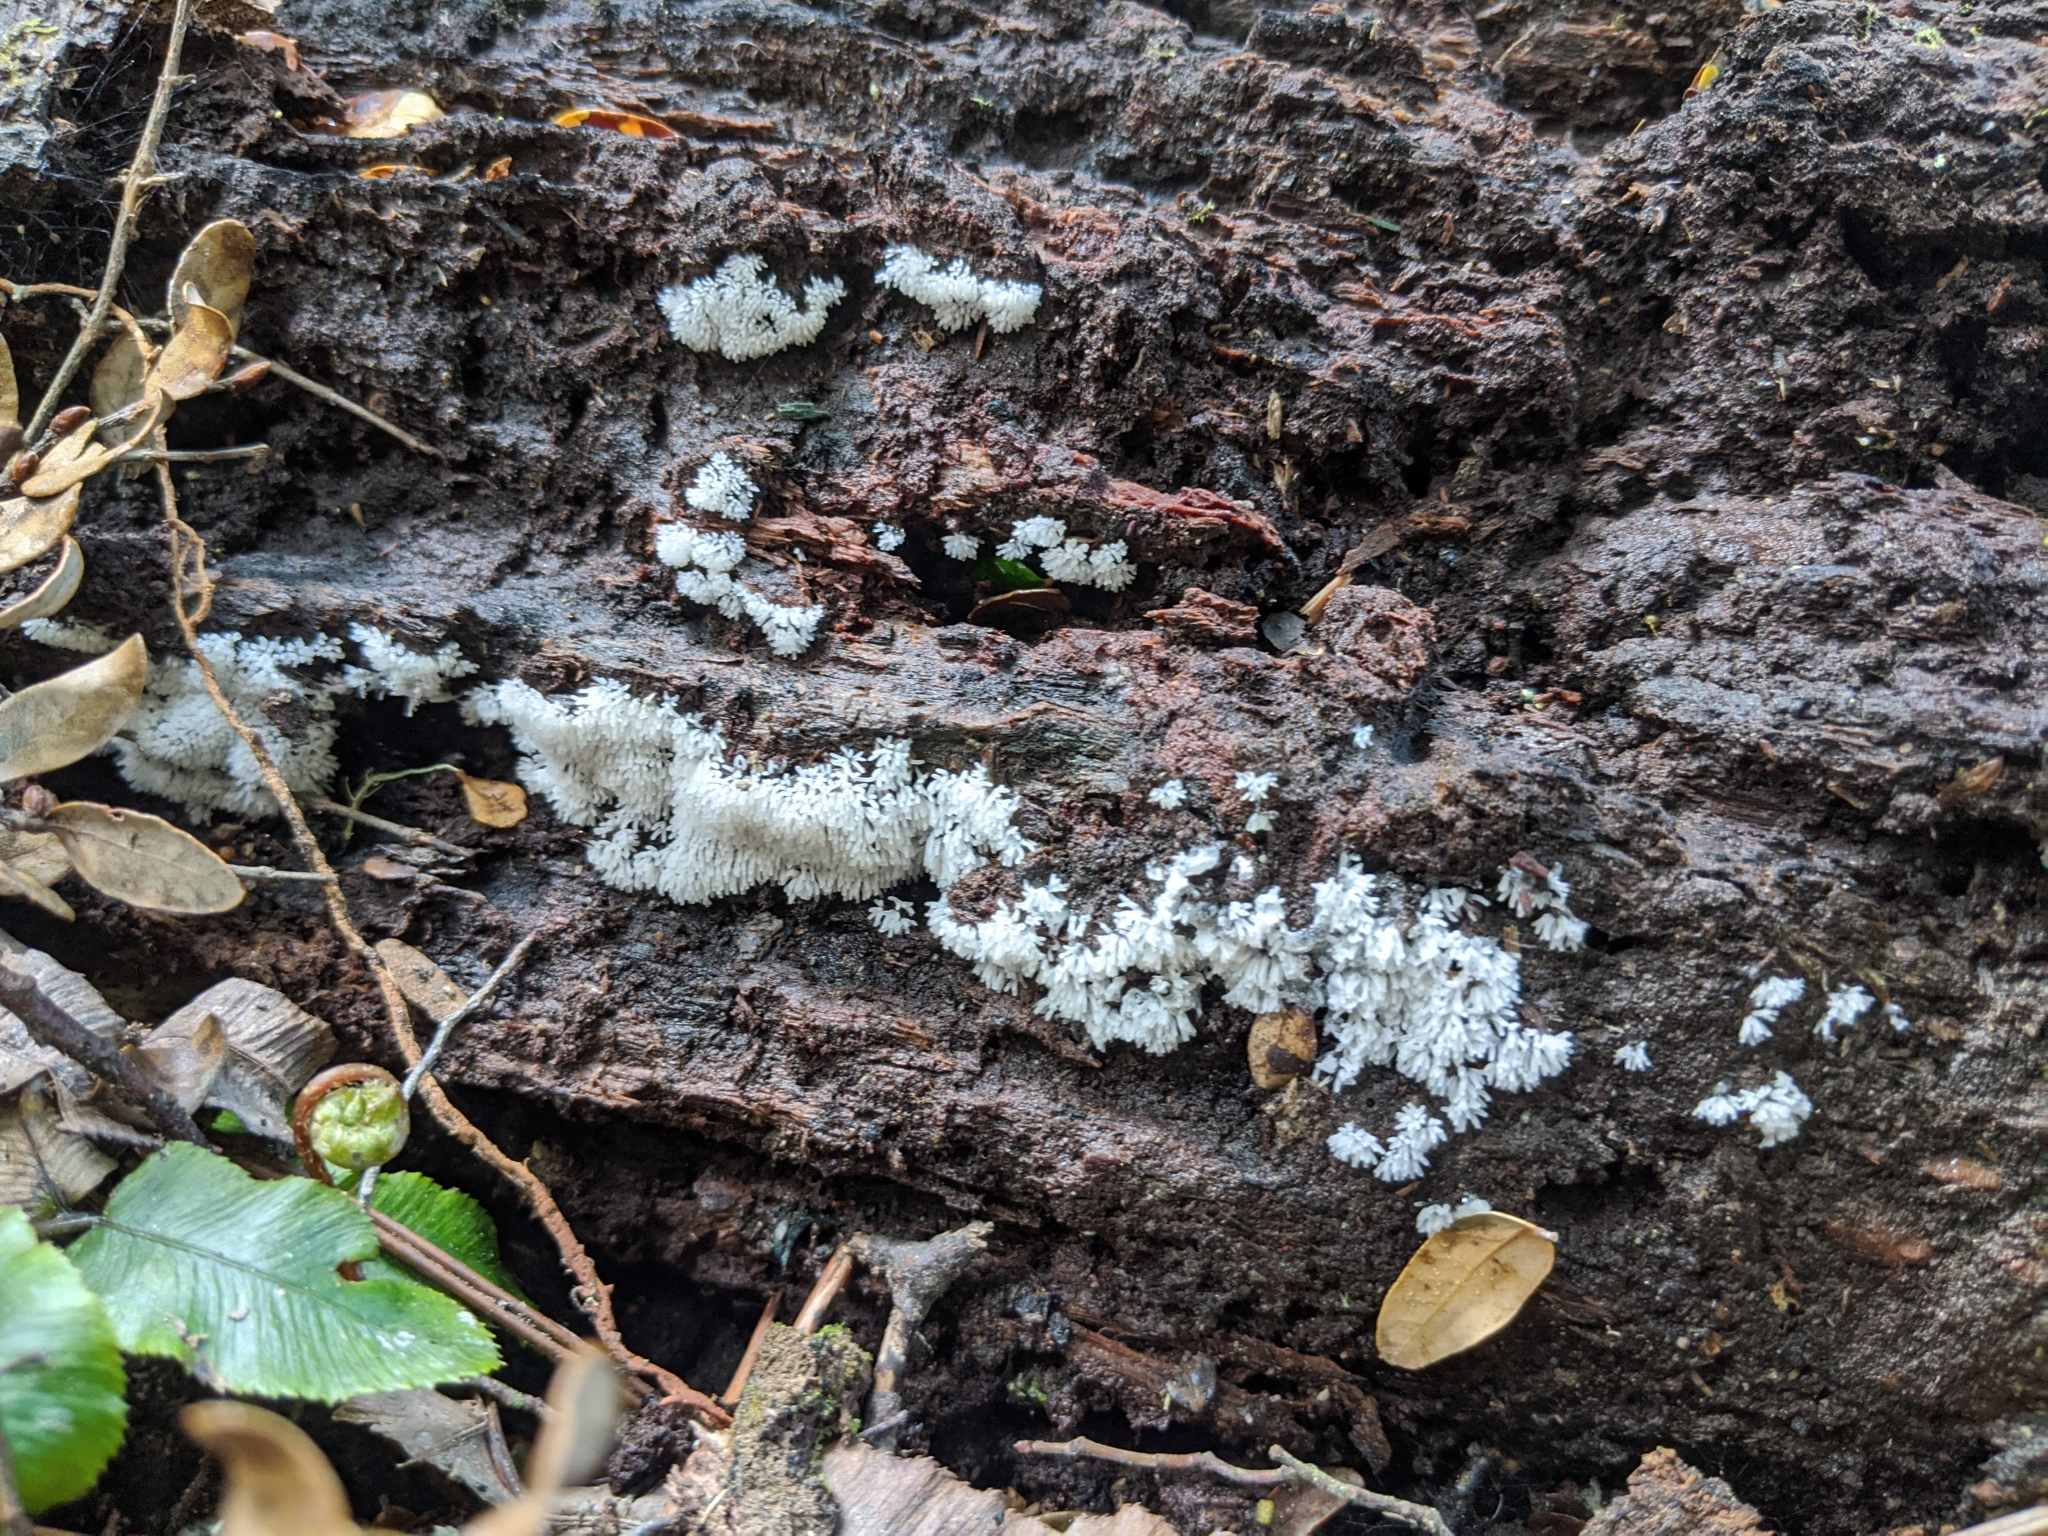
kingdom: Protozoa
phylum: Mycetozoa
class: Protosteliomycetes
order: Ceratiomyxales
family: Ceratiomyxaceae
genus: Ceratiomyxa
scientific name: Ceratiomyxa fruticulosa
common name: Honeycomb coral slime mold
